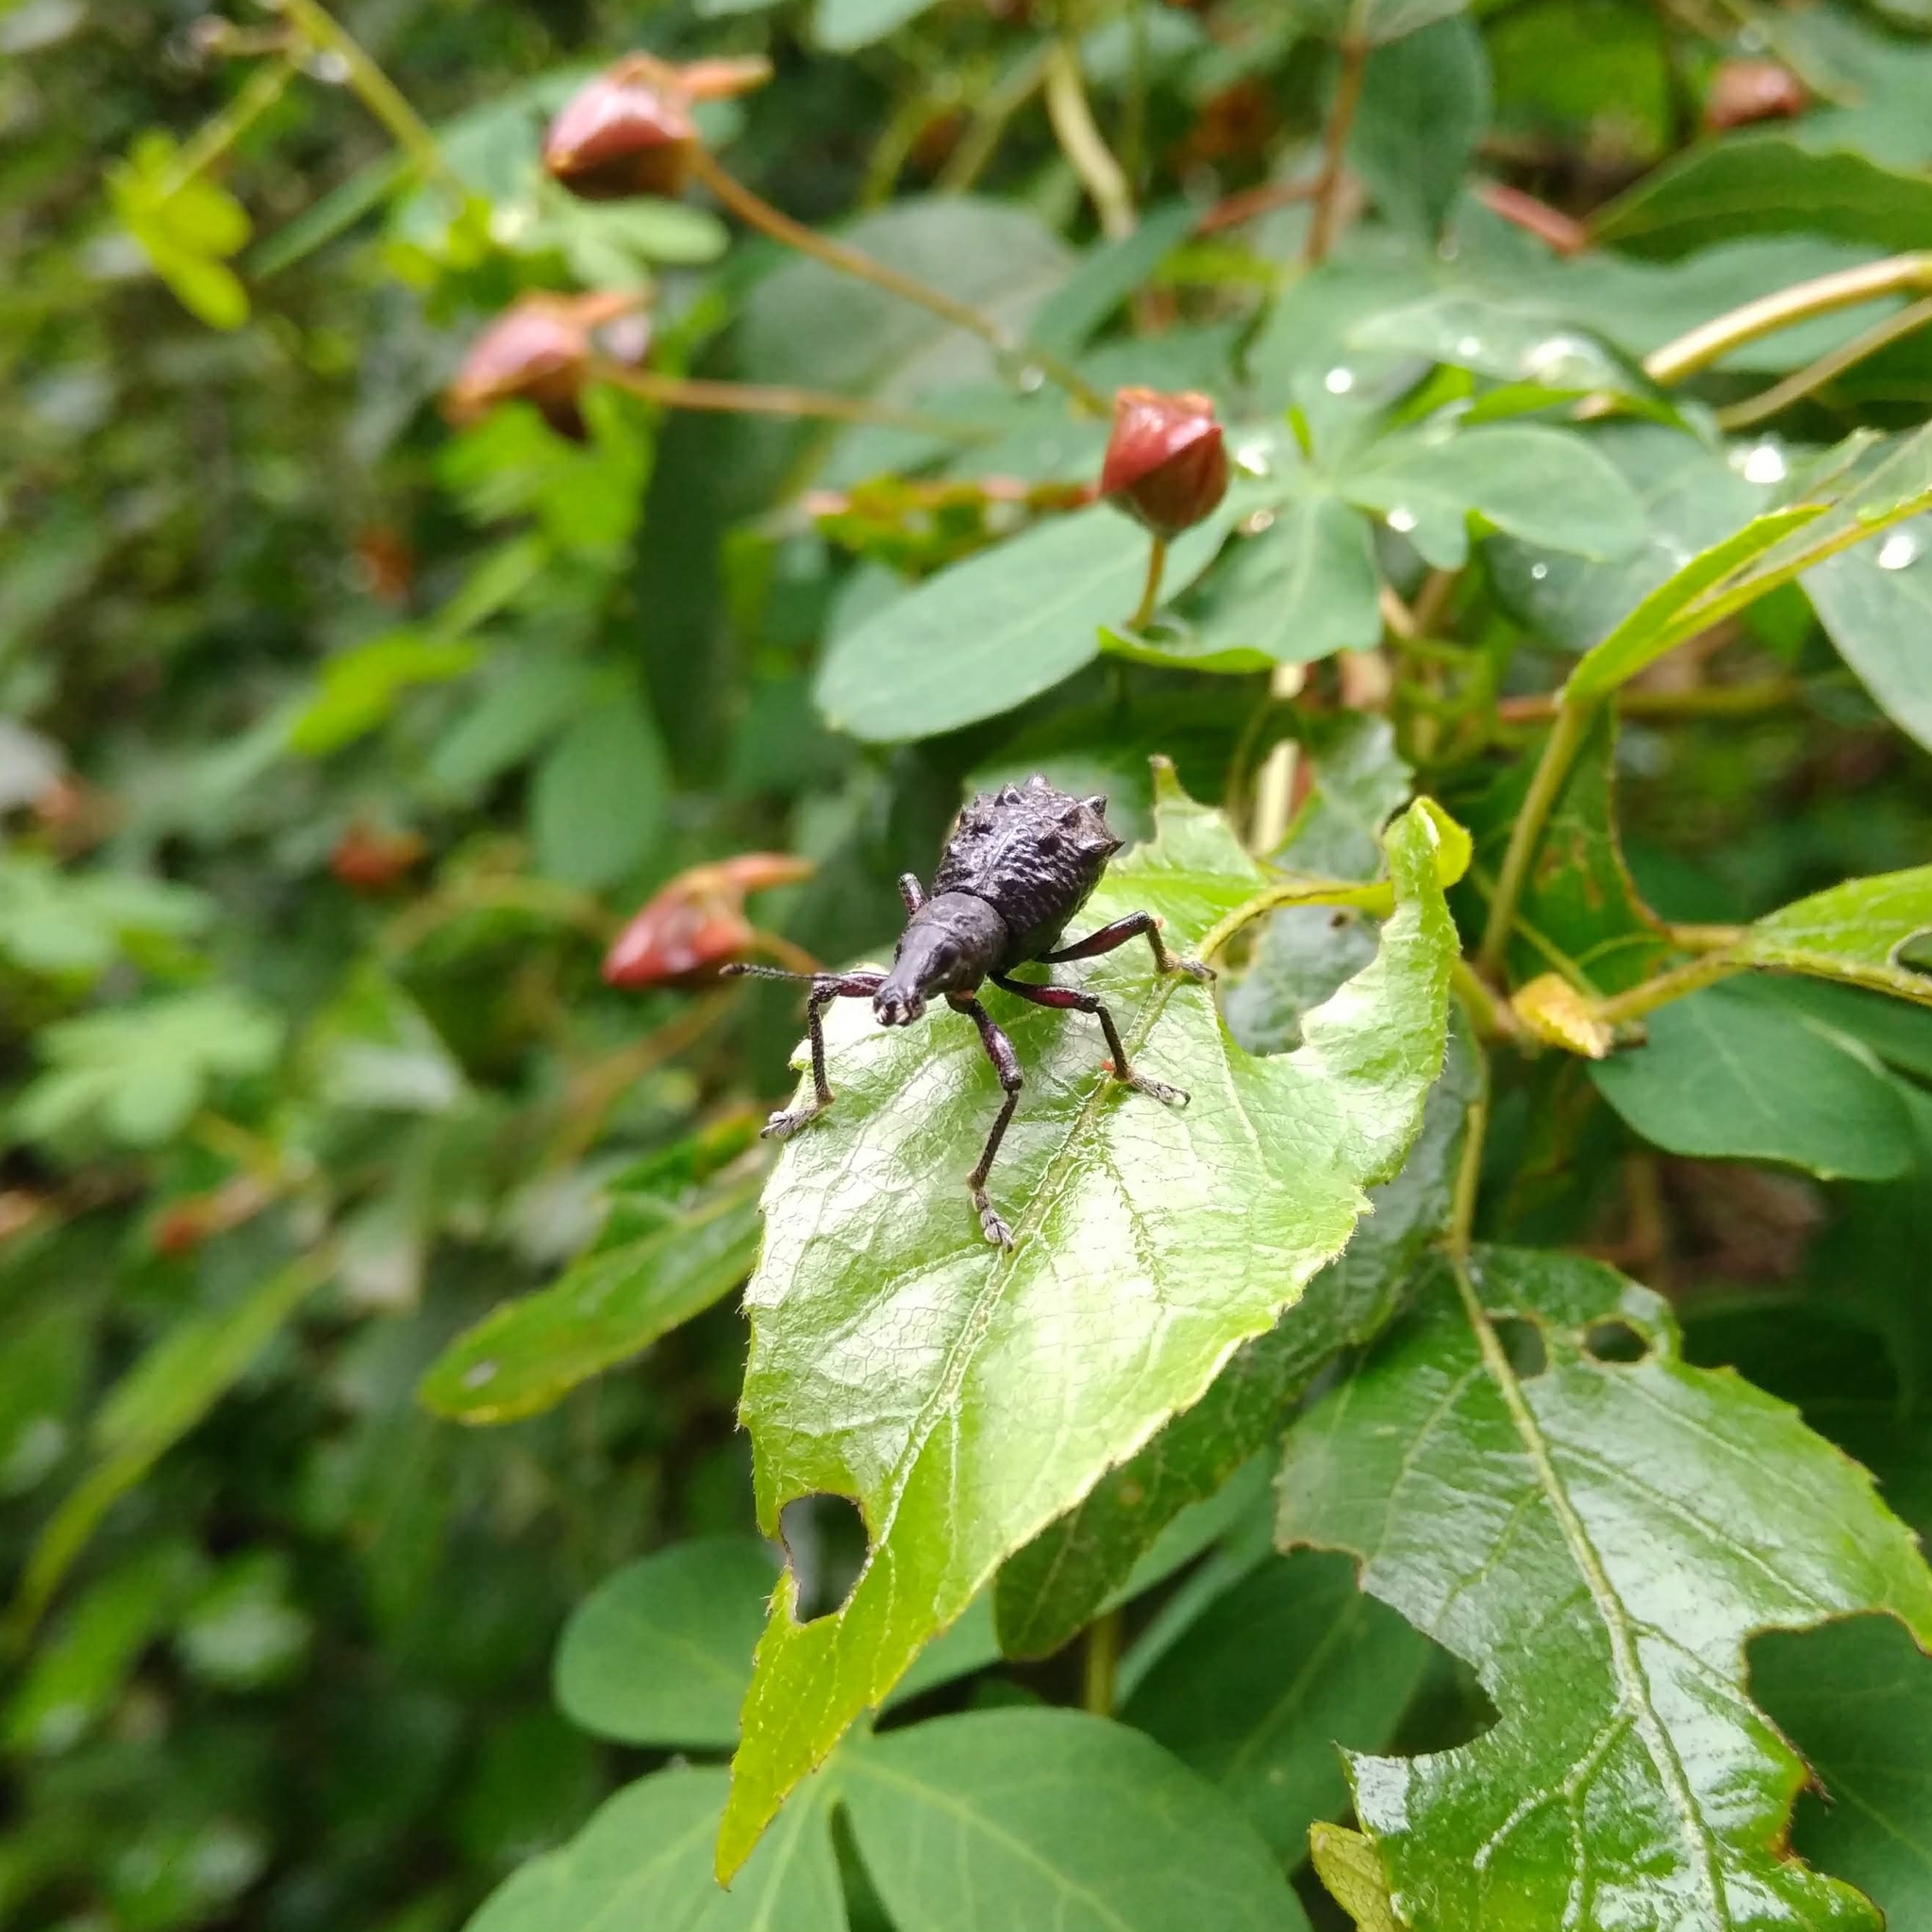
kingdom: Animalia
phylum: Arthropoda
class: Insecta
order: Coleoptera
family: Curculionidae
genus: Megalometis
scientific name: Megalometis spiniferus
